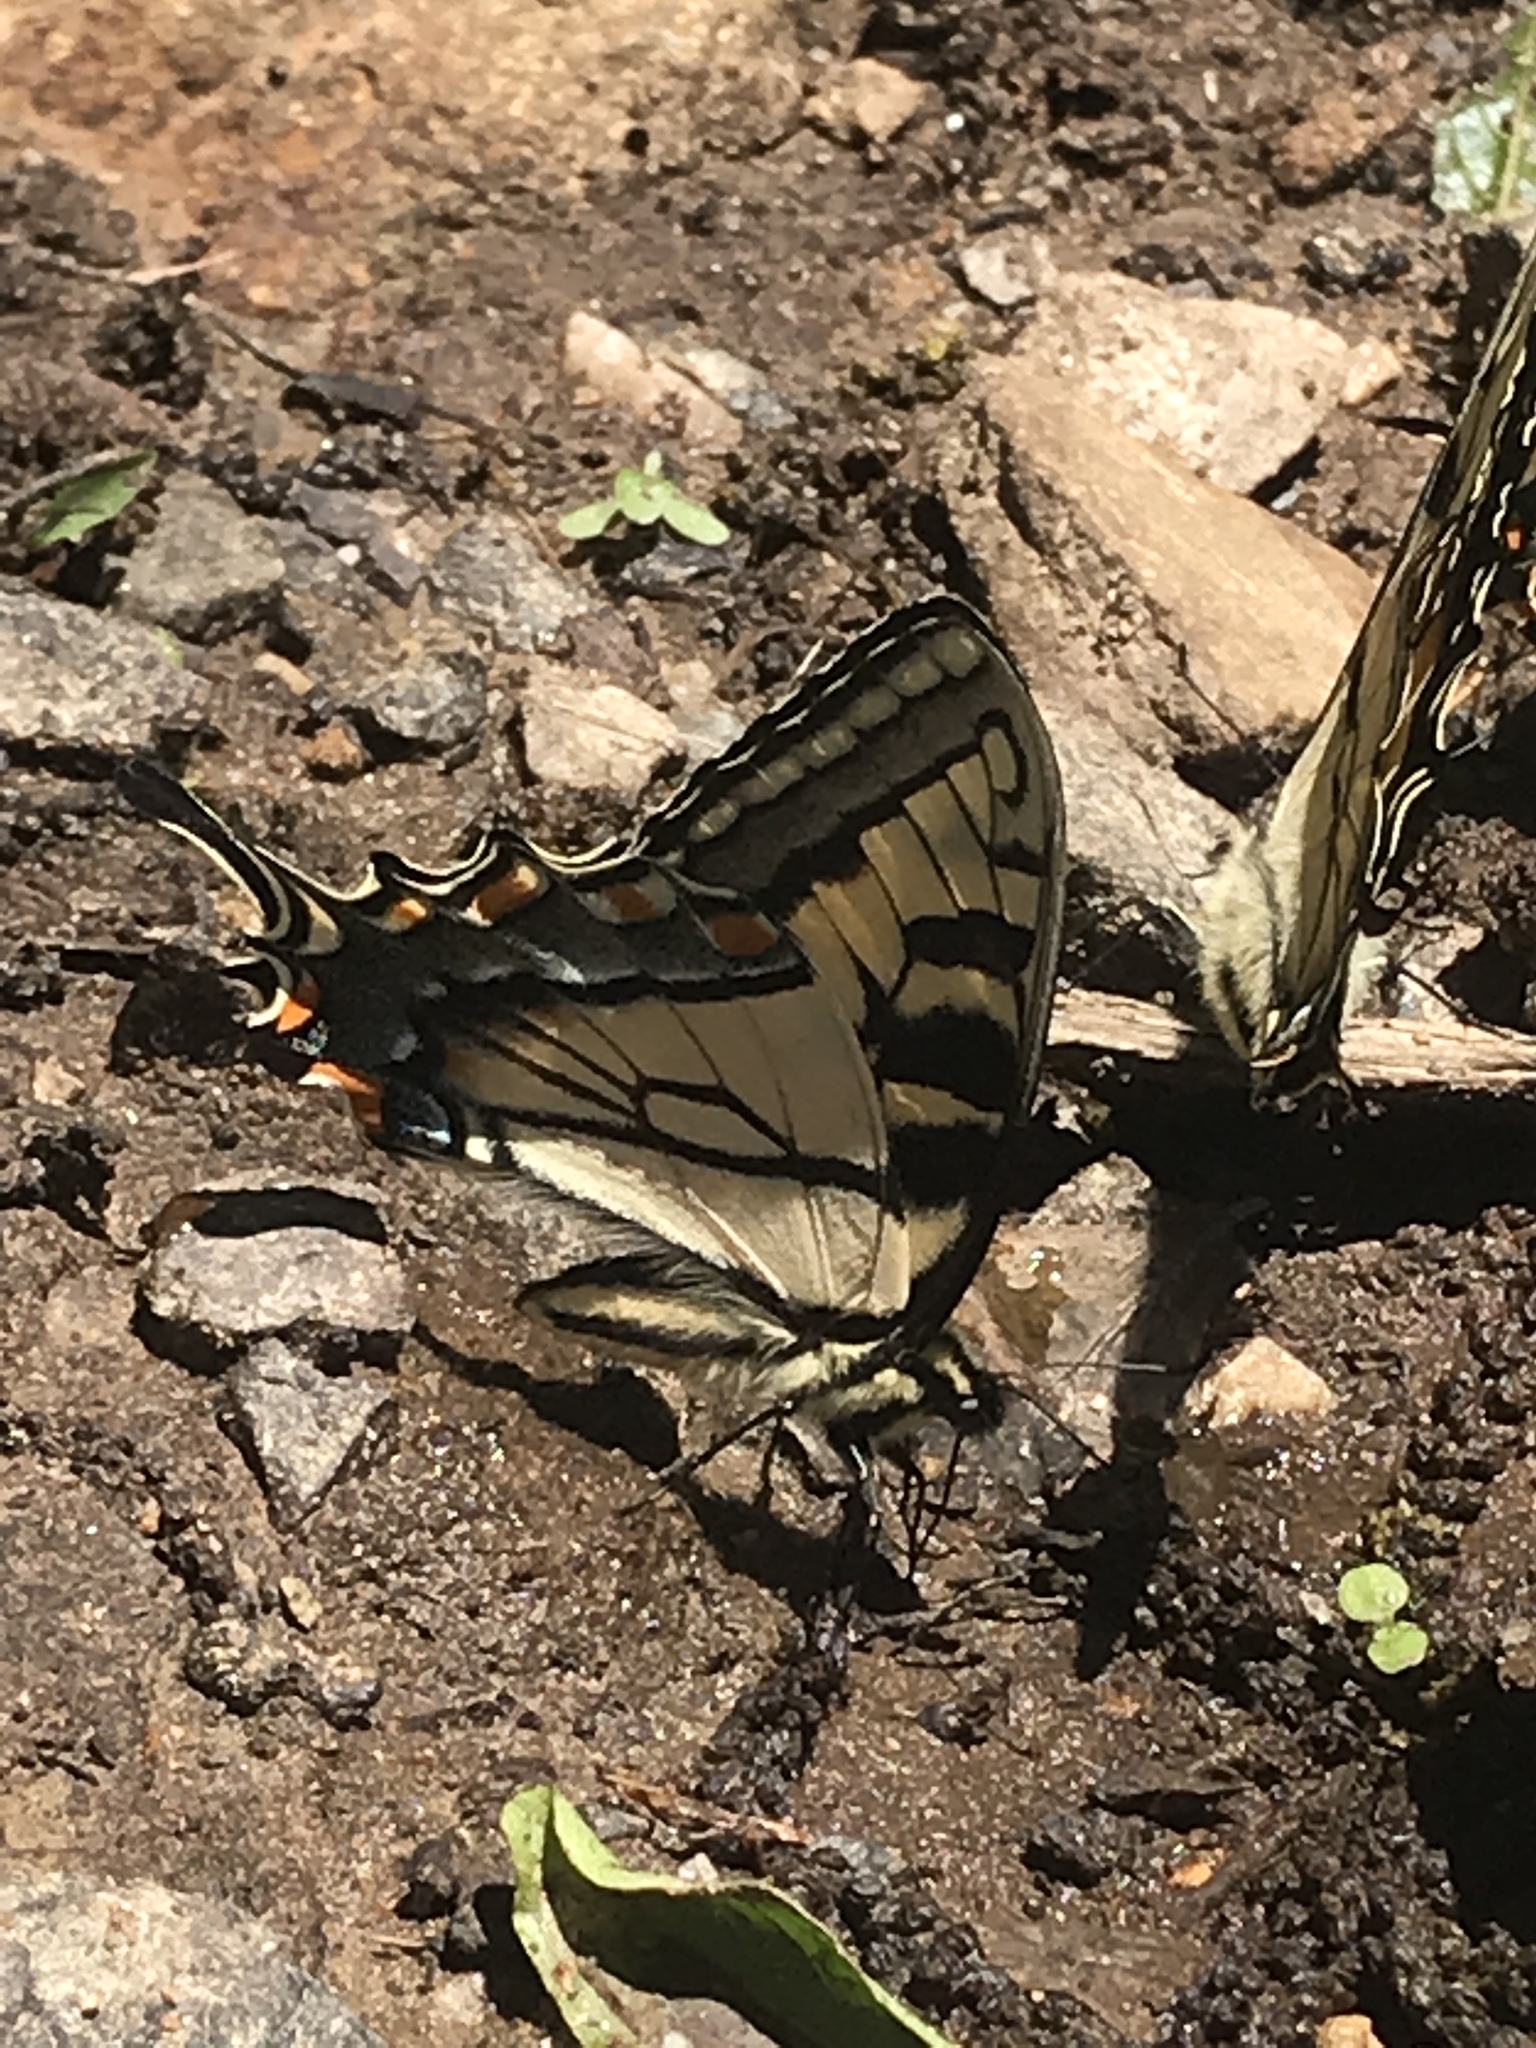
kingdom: Animalia
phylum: Arthropoda
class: Insecta
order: Lepidoptera
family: Papilionidae
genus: Papilio
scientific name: Papilio glaucus
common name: Tiger swallowtail
